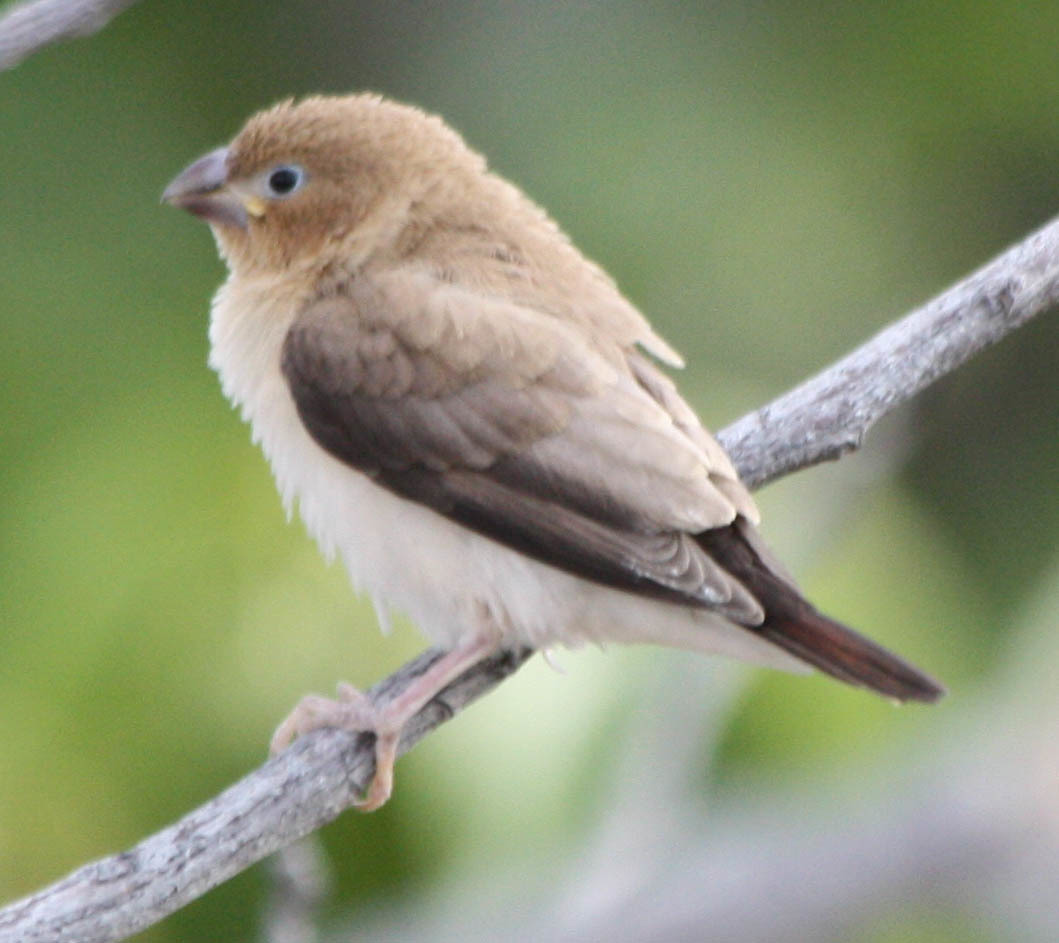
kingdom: Animalia
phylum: Chordata
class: Aves
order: Passeriformes
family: Estrildidae
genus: Euodice
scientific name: Euodice cantans
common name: African silverbill
